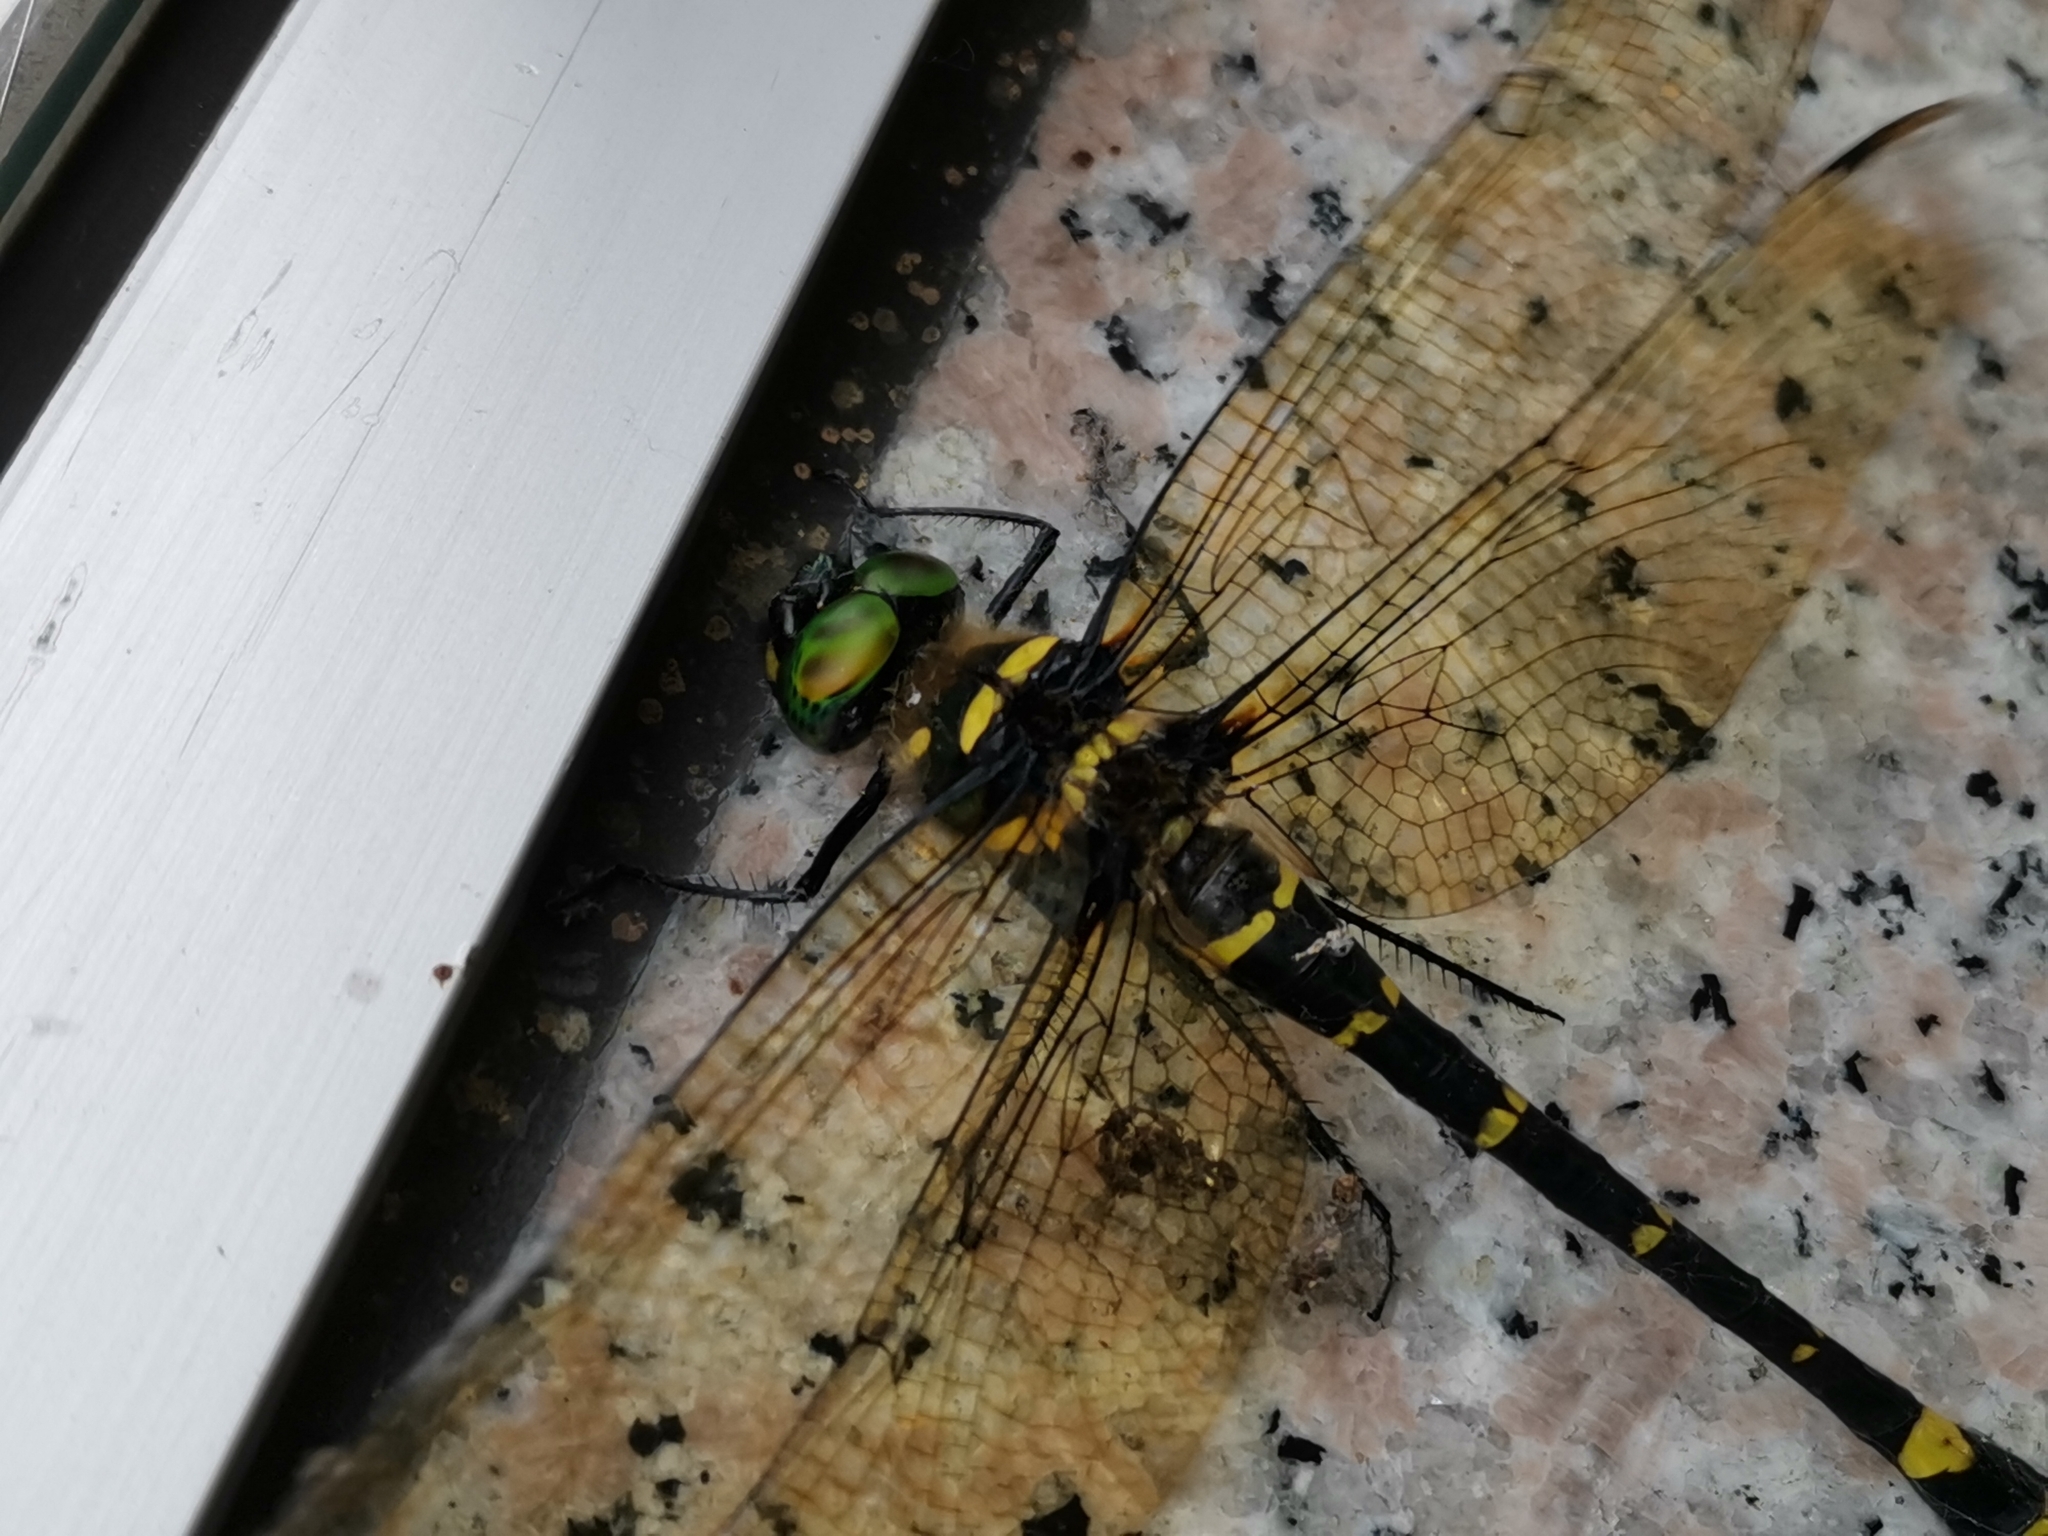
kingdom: Animalia
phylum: Arthropoda
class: Insecta
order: Odonata
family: Macromiidae
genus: Macromia
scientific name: Macromia amphigena
